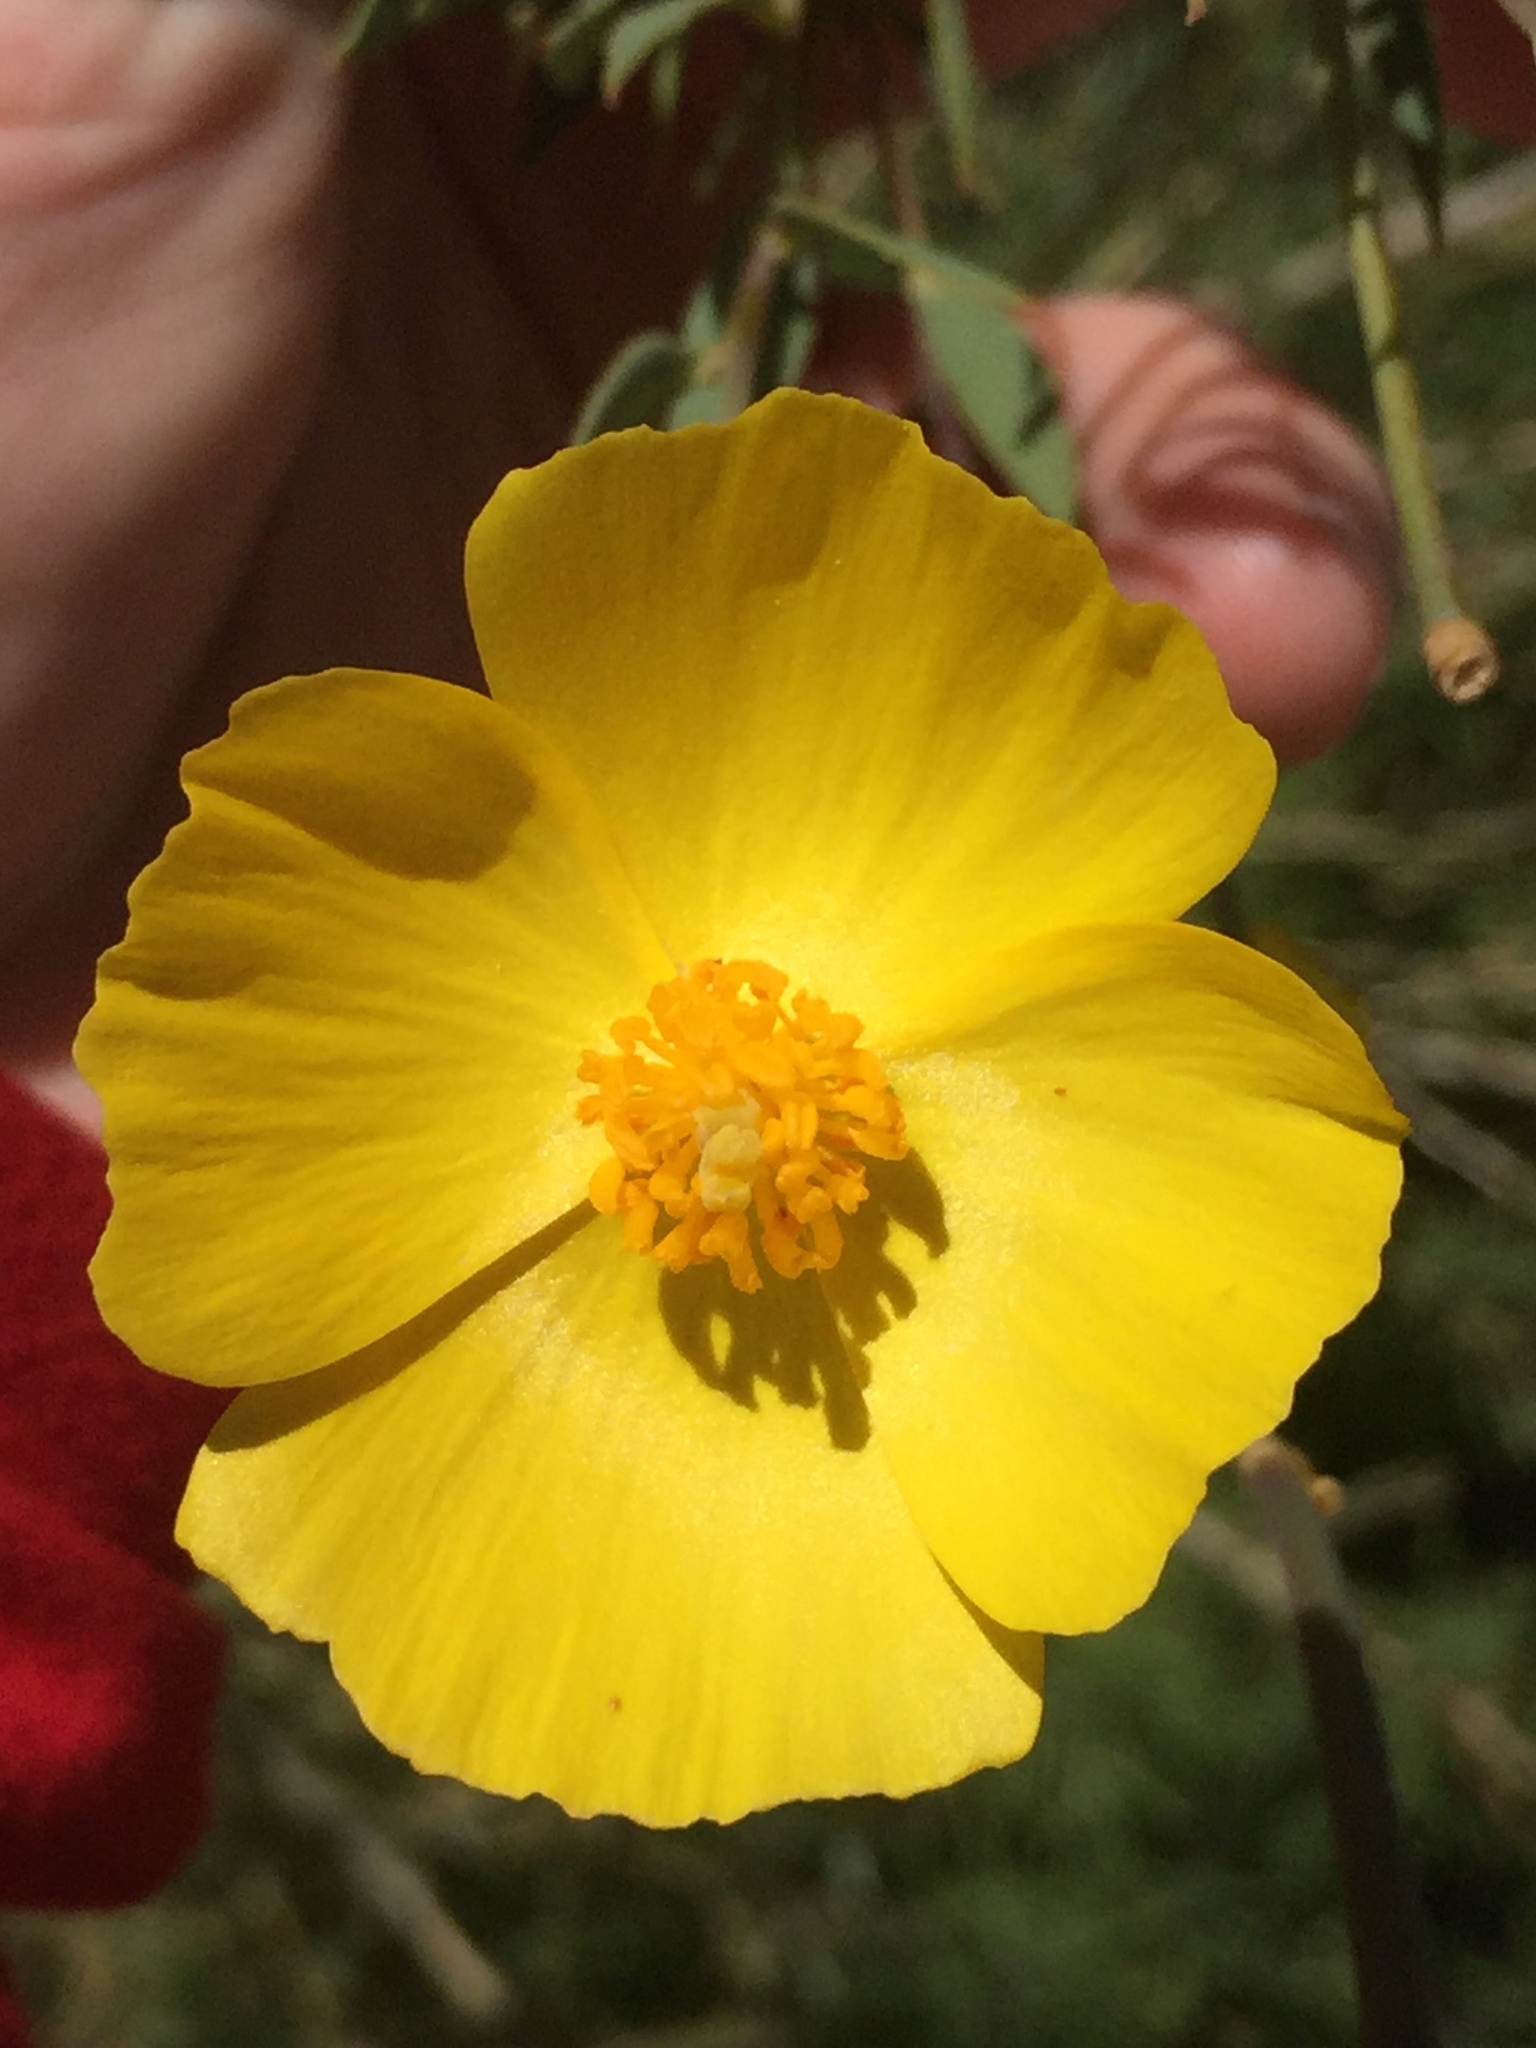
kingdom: Plantae
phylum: Tracheophyta
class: Magnoliopsida
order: Ranunculales
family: Papaveraceae
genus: Dendromecon
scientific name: Dendromecon rigida
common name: Tree poppy
